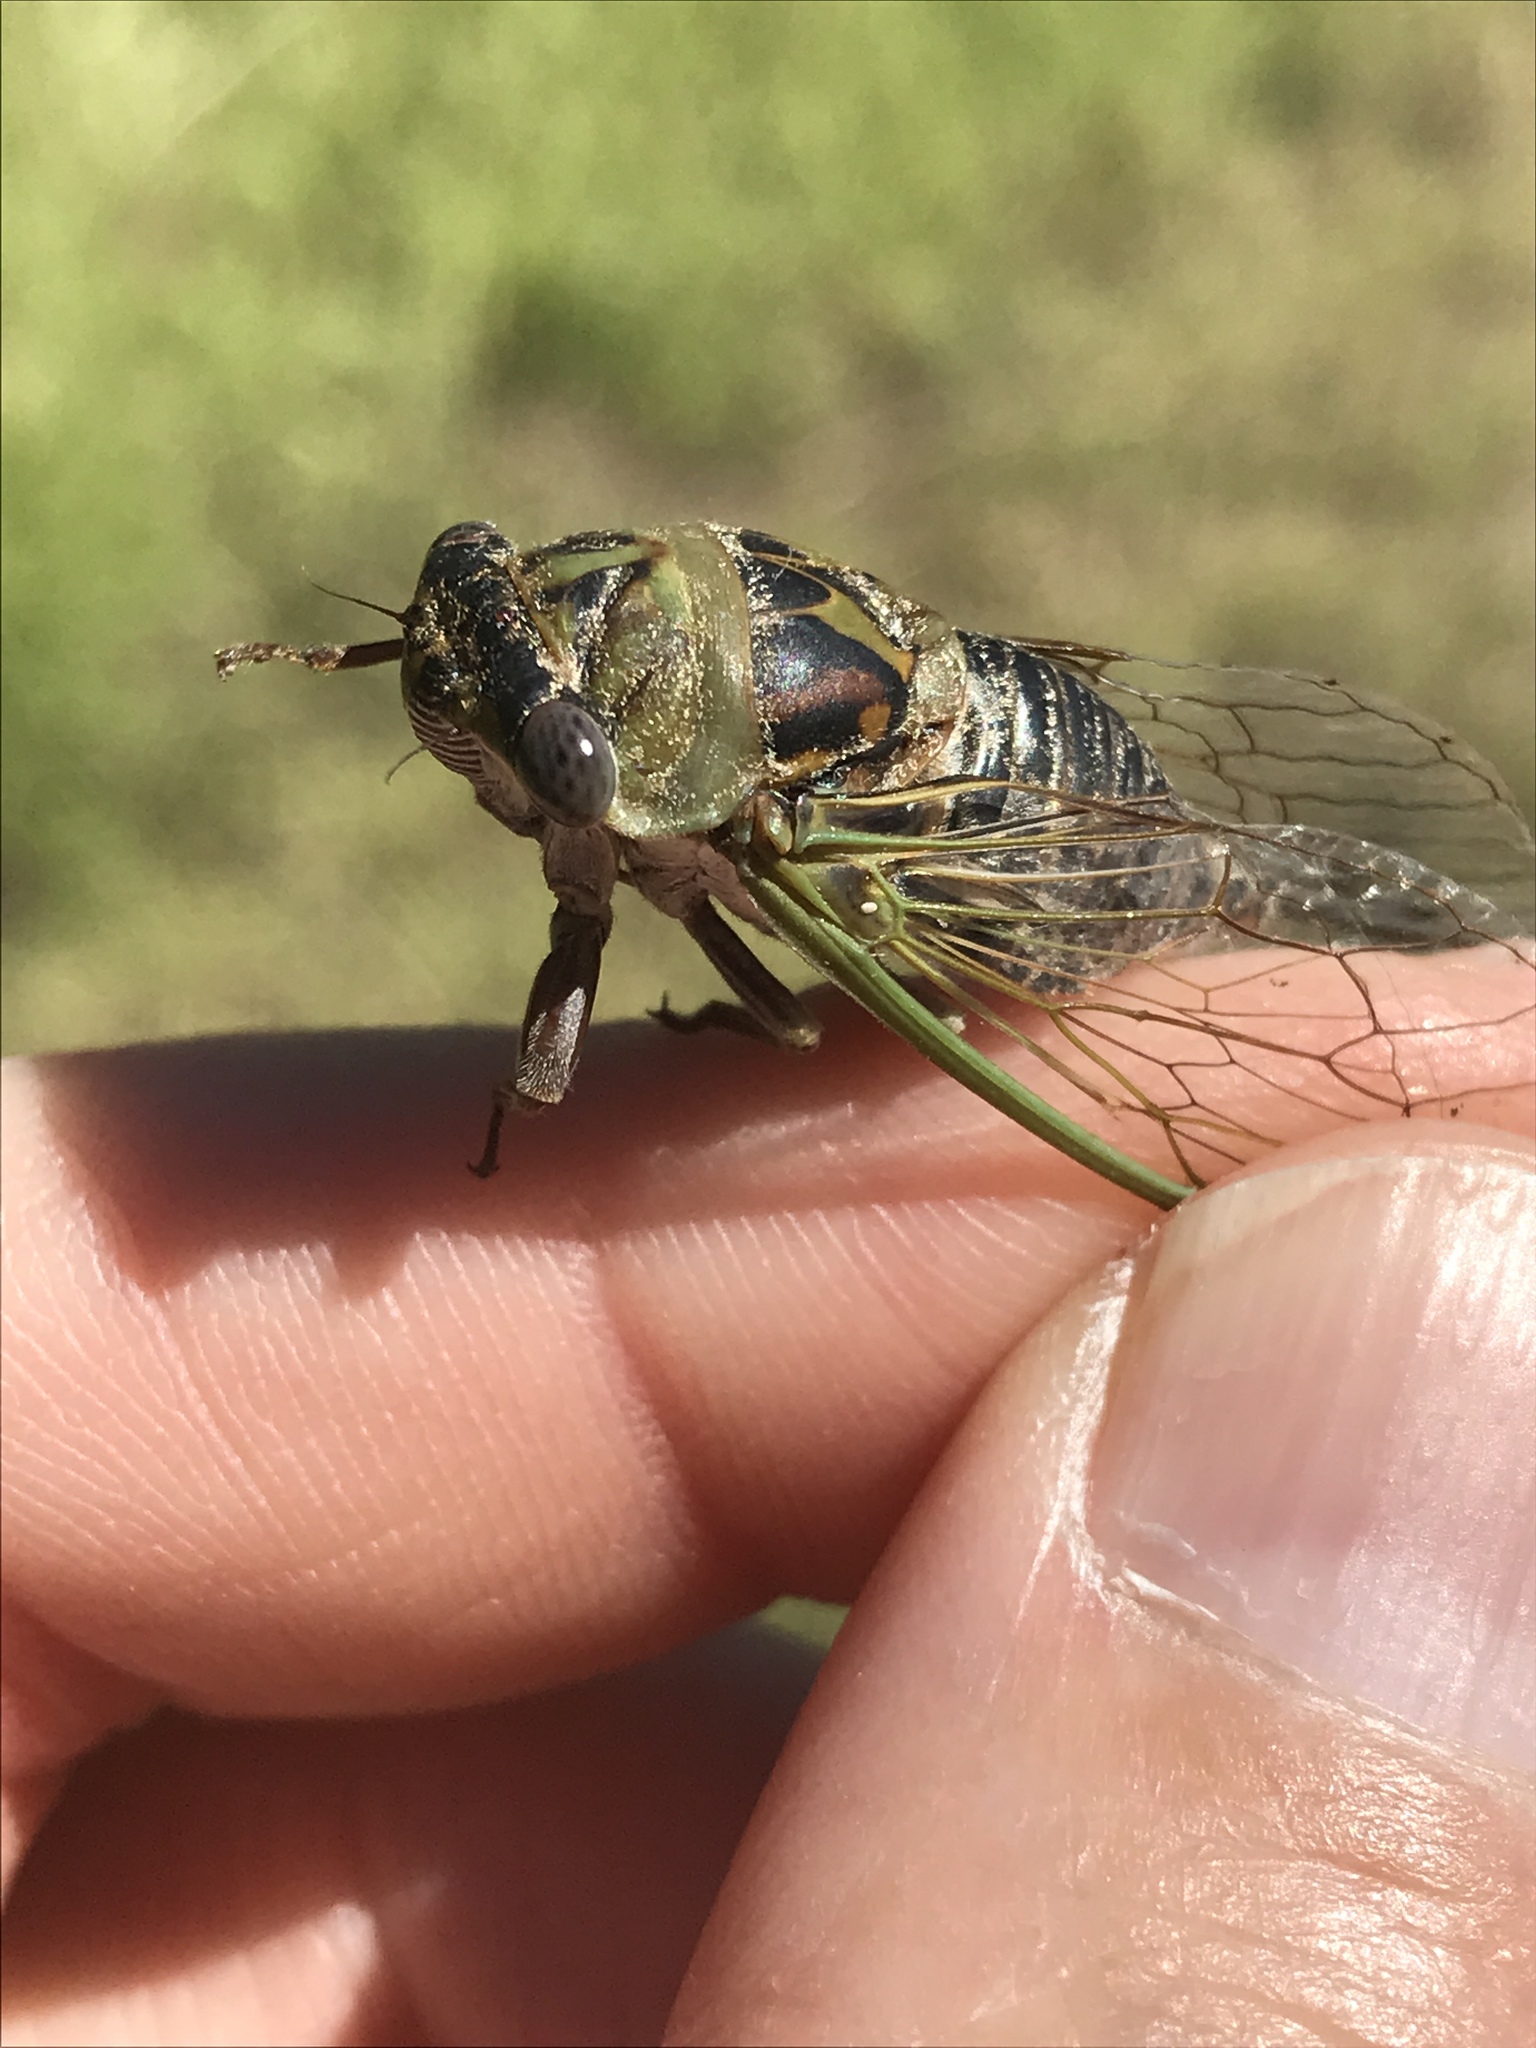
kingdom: Animalia
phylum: Arthropoda
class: Insecta
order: Hemiptera
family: Cicadidae
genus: Neotibicen
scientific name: Neotibicen aurifer
